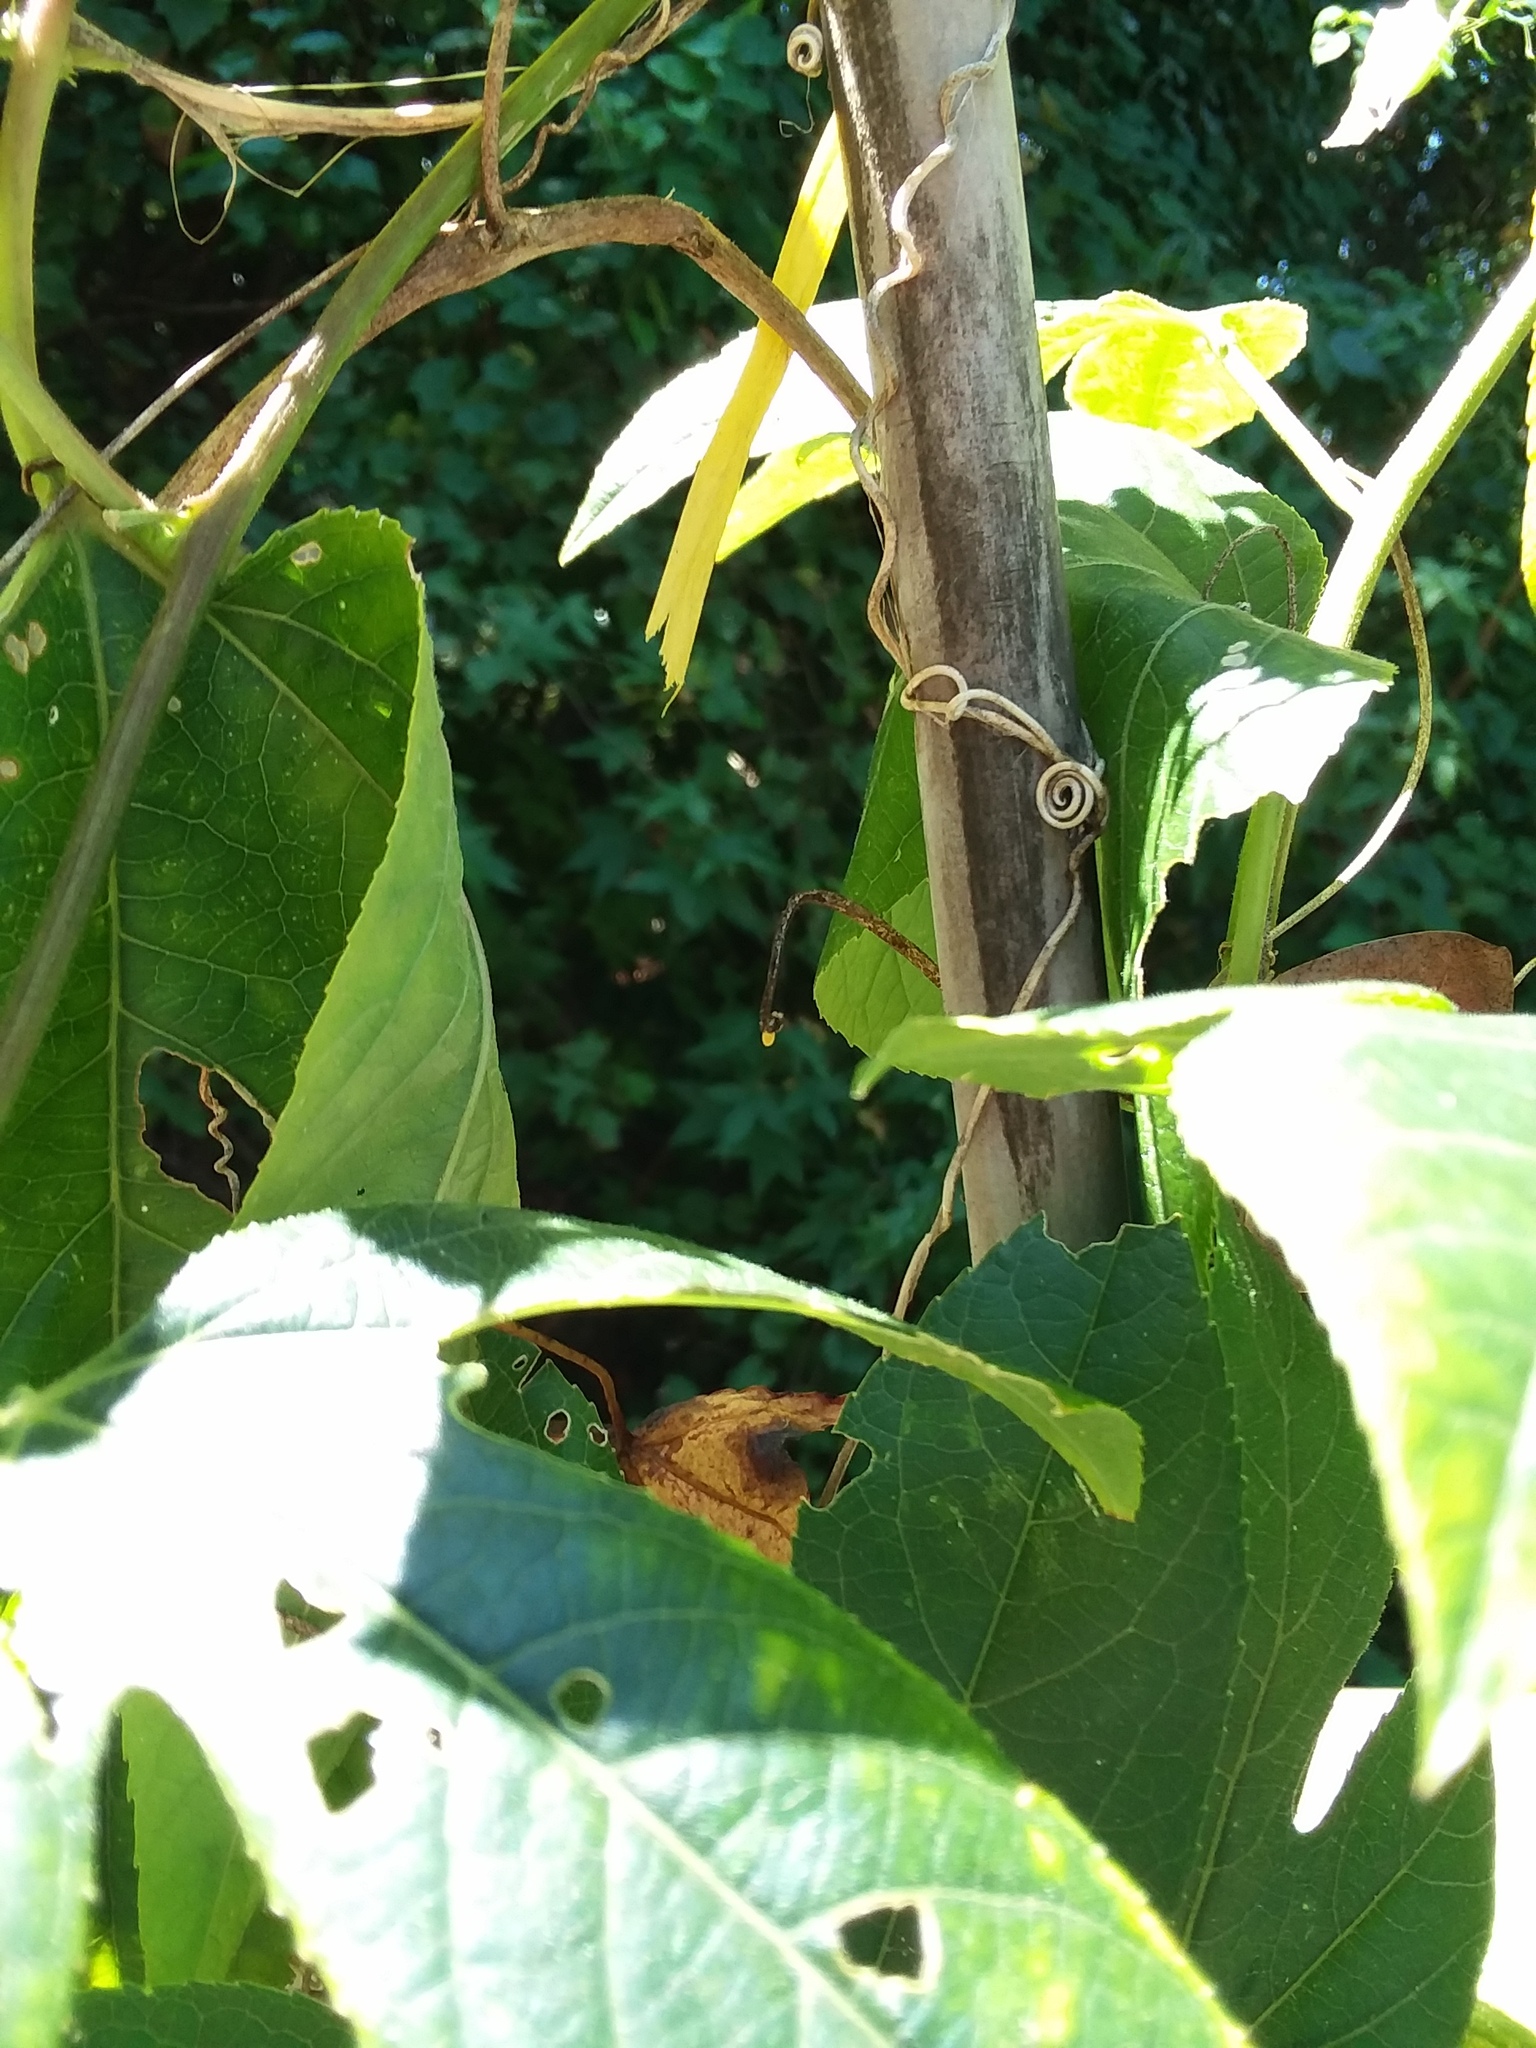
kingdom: Animalia
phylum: Arthropoda
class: Insecta
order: Lepidoptera
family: Nymphalidae
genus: Dione
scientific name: Dione vanillae
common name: Gulf fritillary
